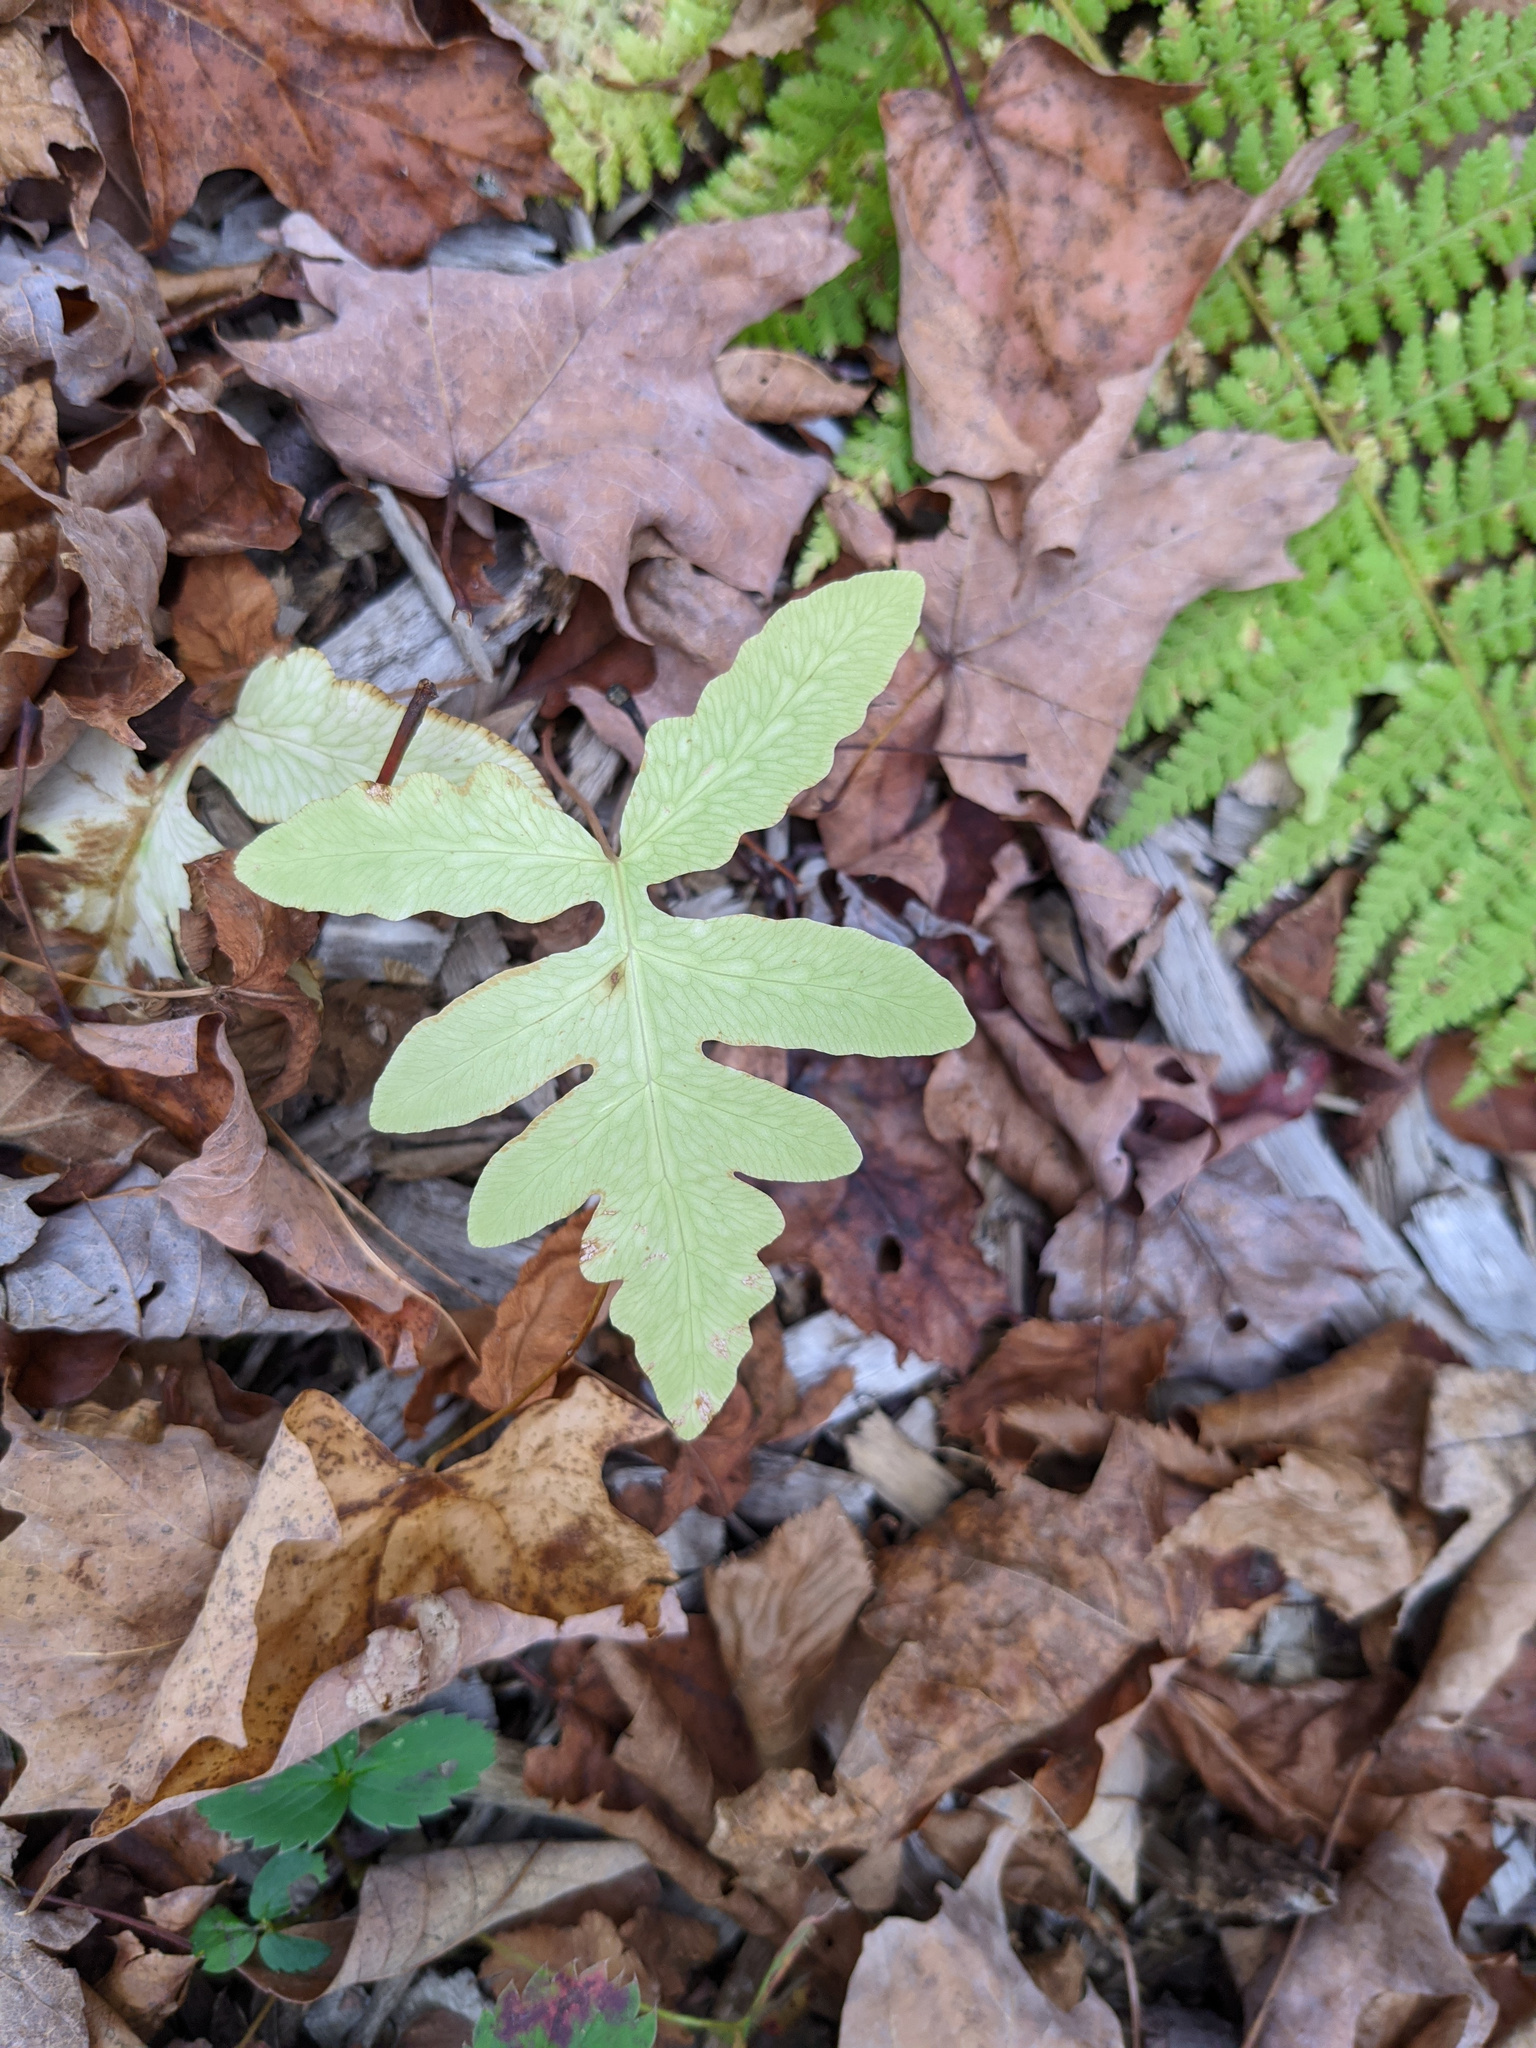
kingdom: Plantae
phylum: Tracheophyta
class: Polypodiopsida
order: Polypodiales
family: Onocleaceae
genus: Onoclea
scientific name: Onoclea sensibilis
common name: Sensitive fern
